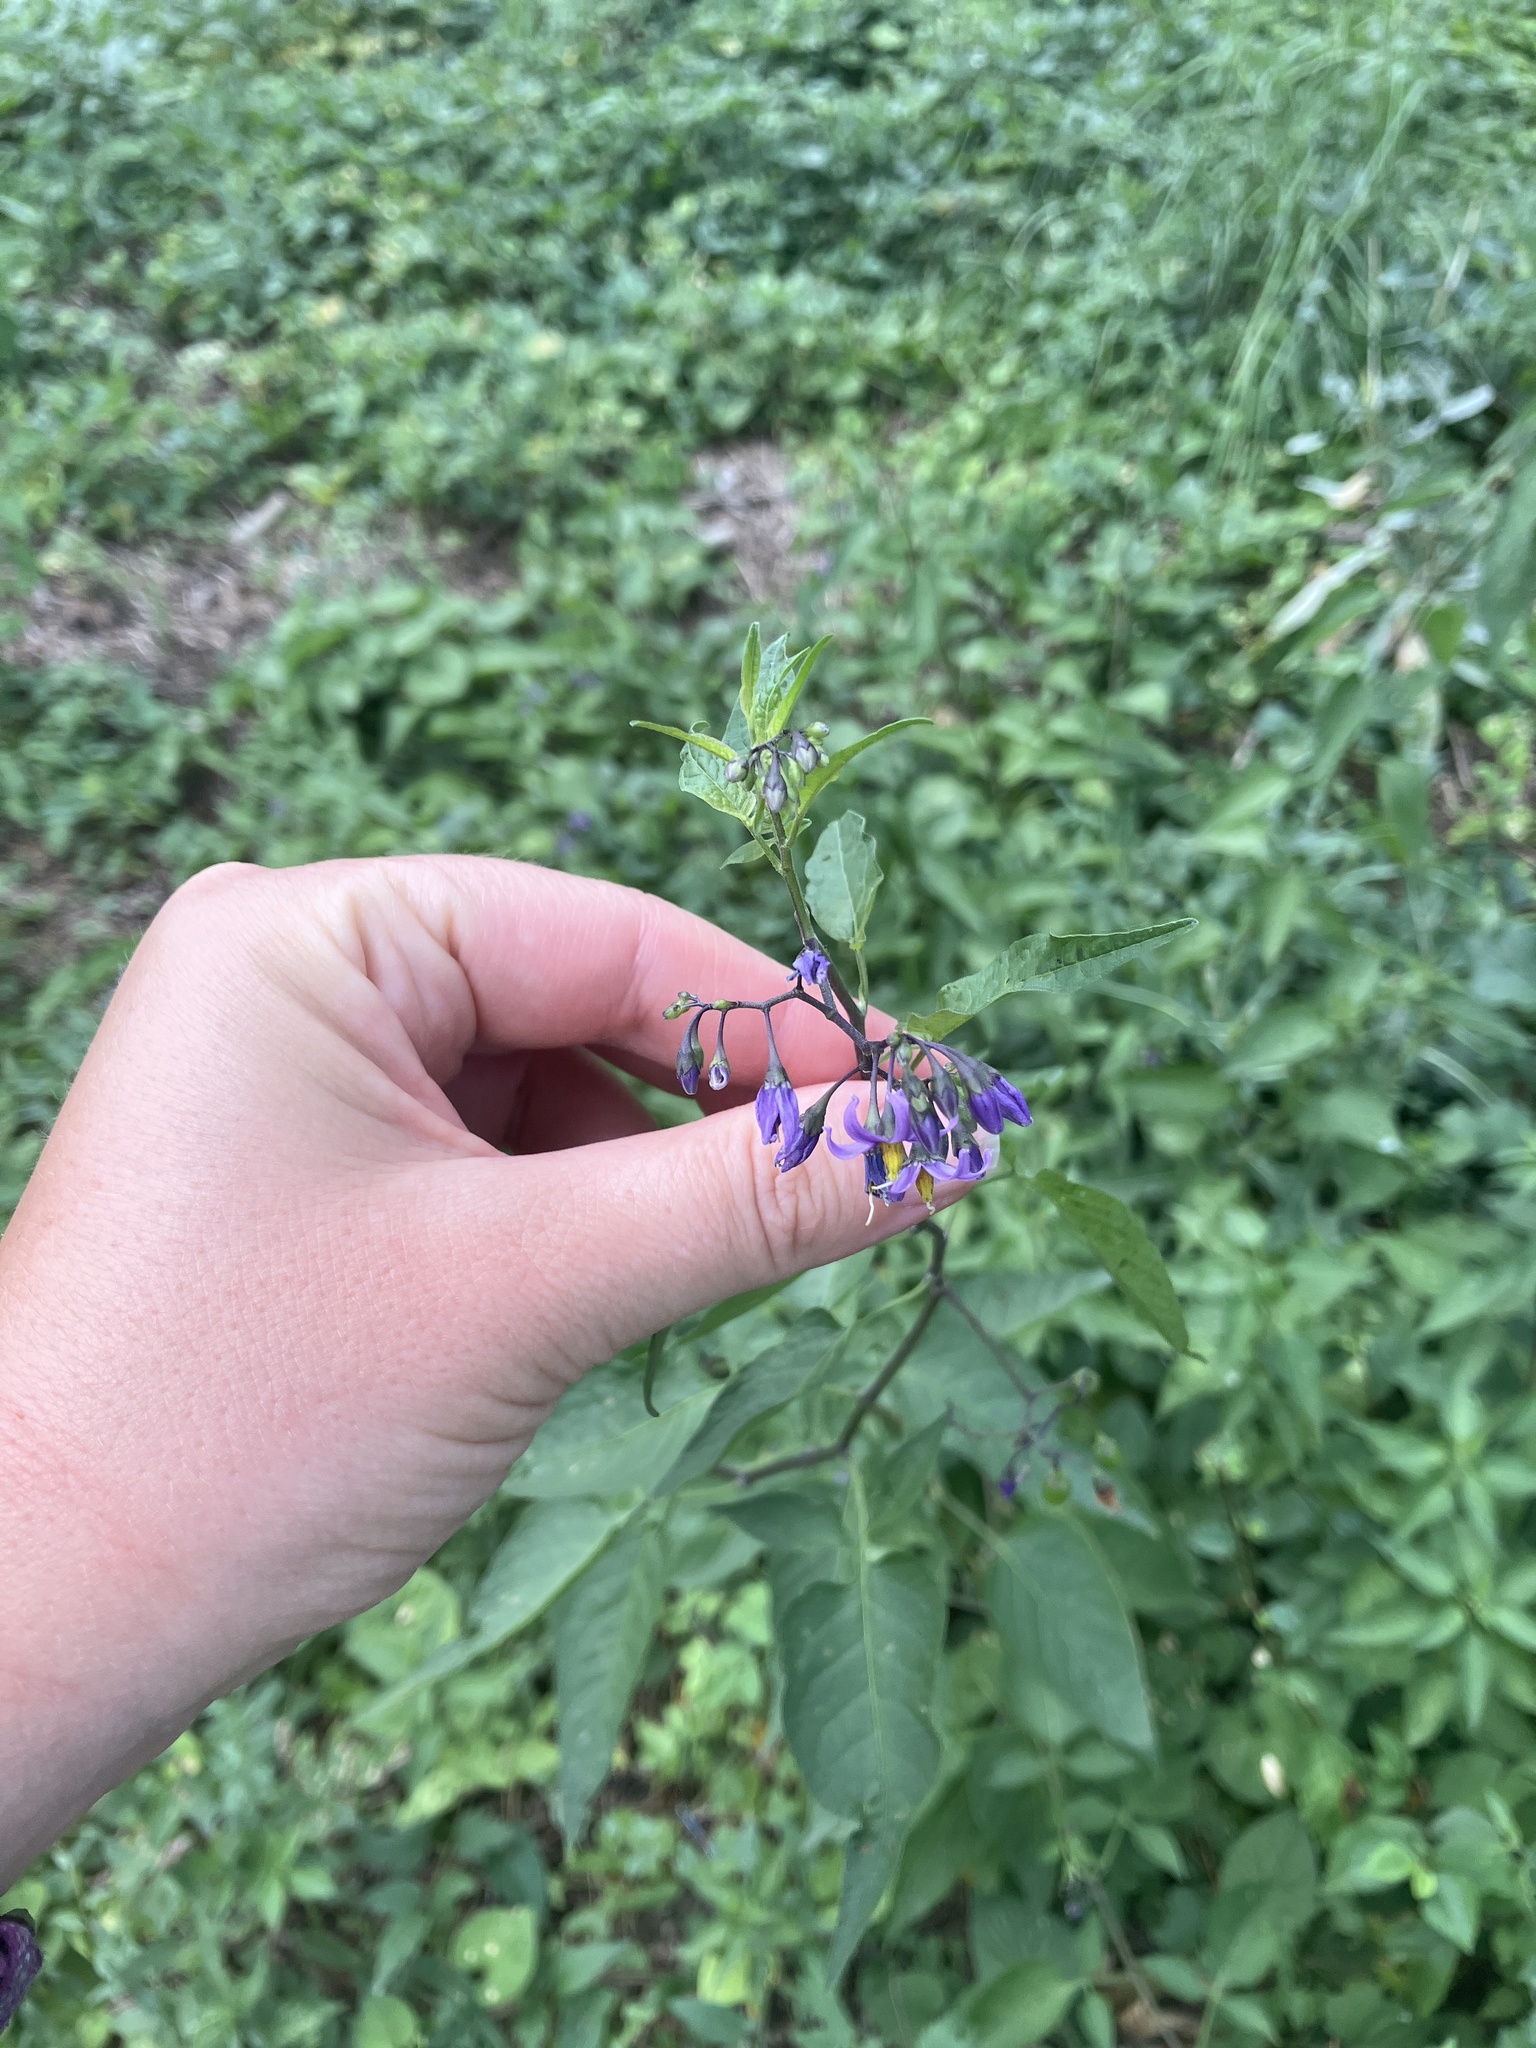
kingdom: Plantae
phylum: Tracheophyta
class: Magnoliopsida
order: Solanales
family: Solanaceae
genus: Solanum
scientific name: Solanum dulcamara
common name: Climbing nightshade
